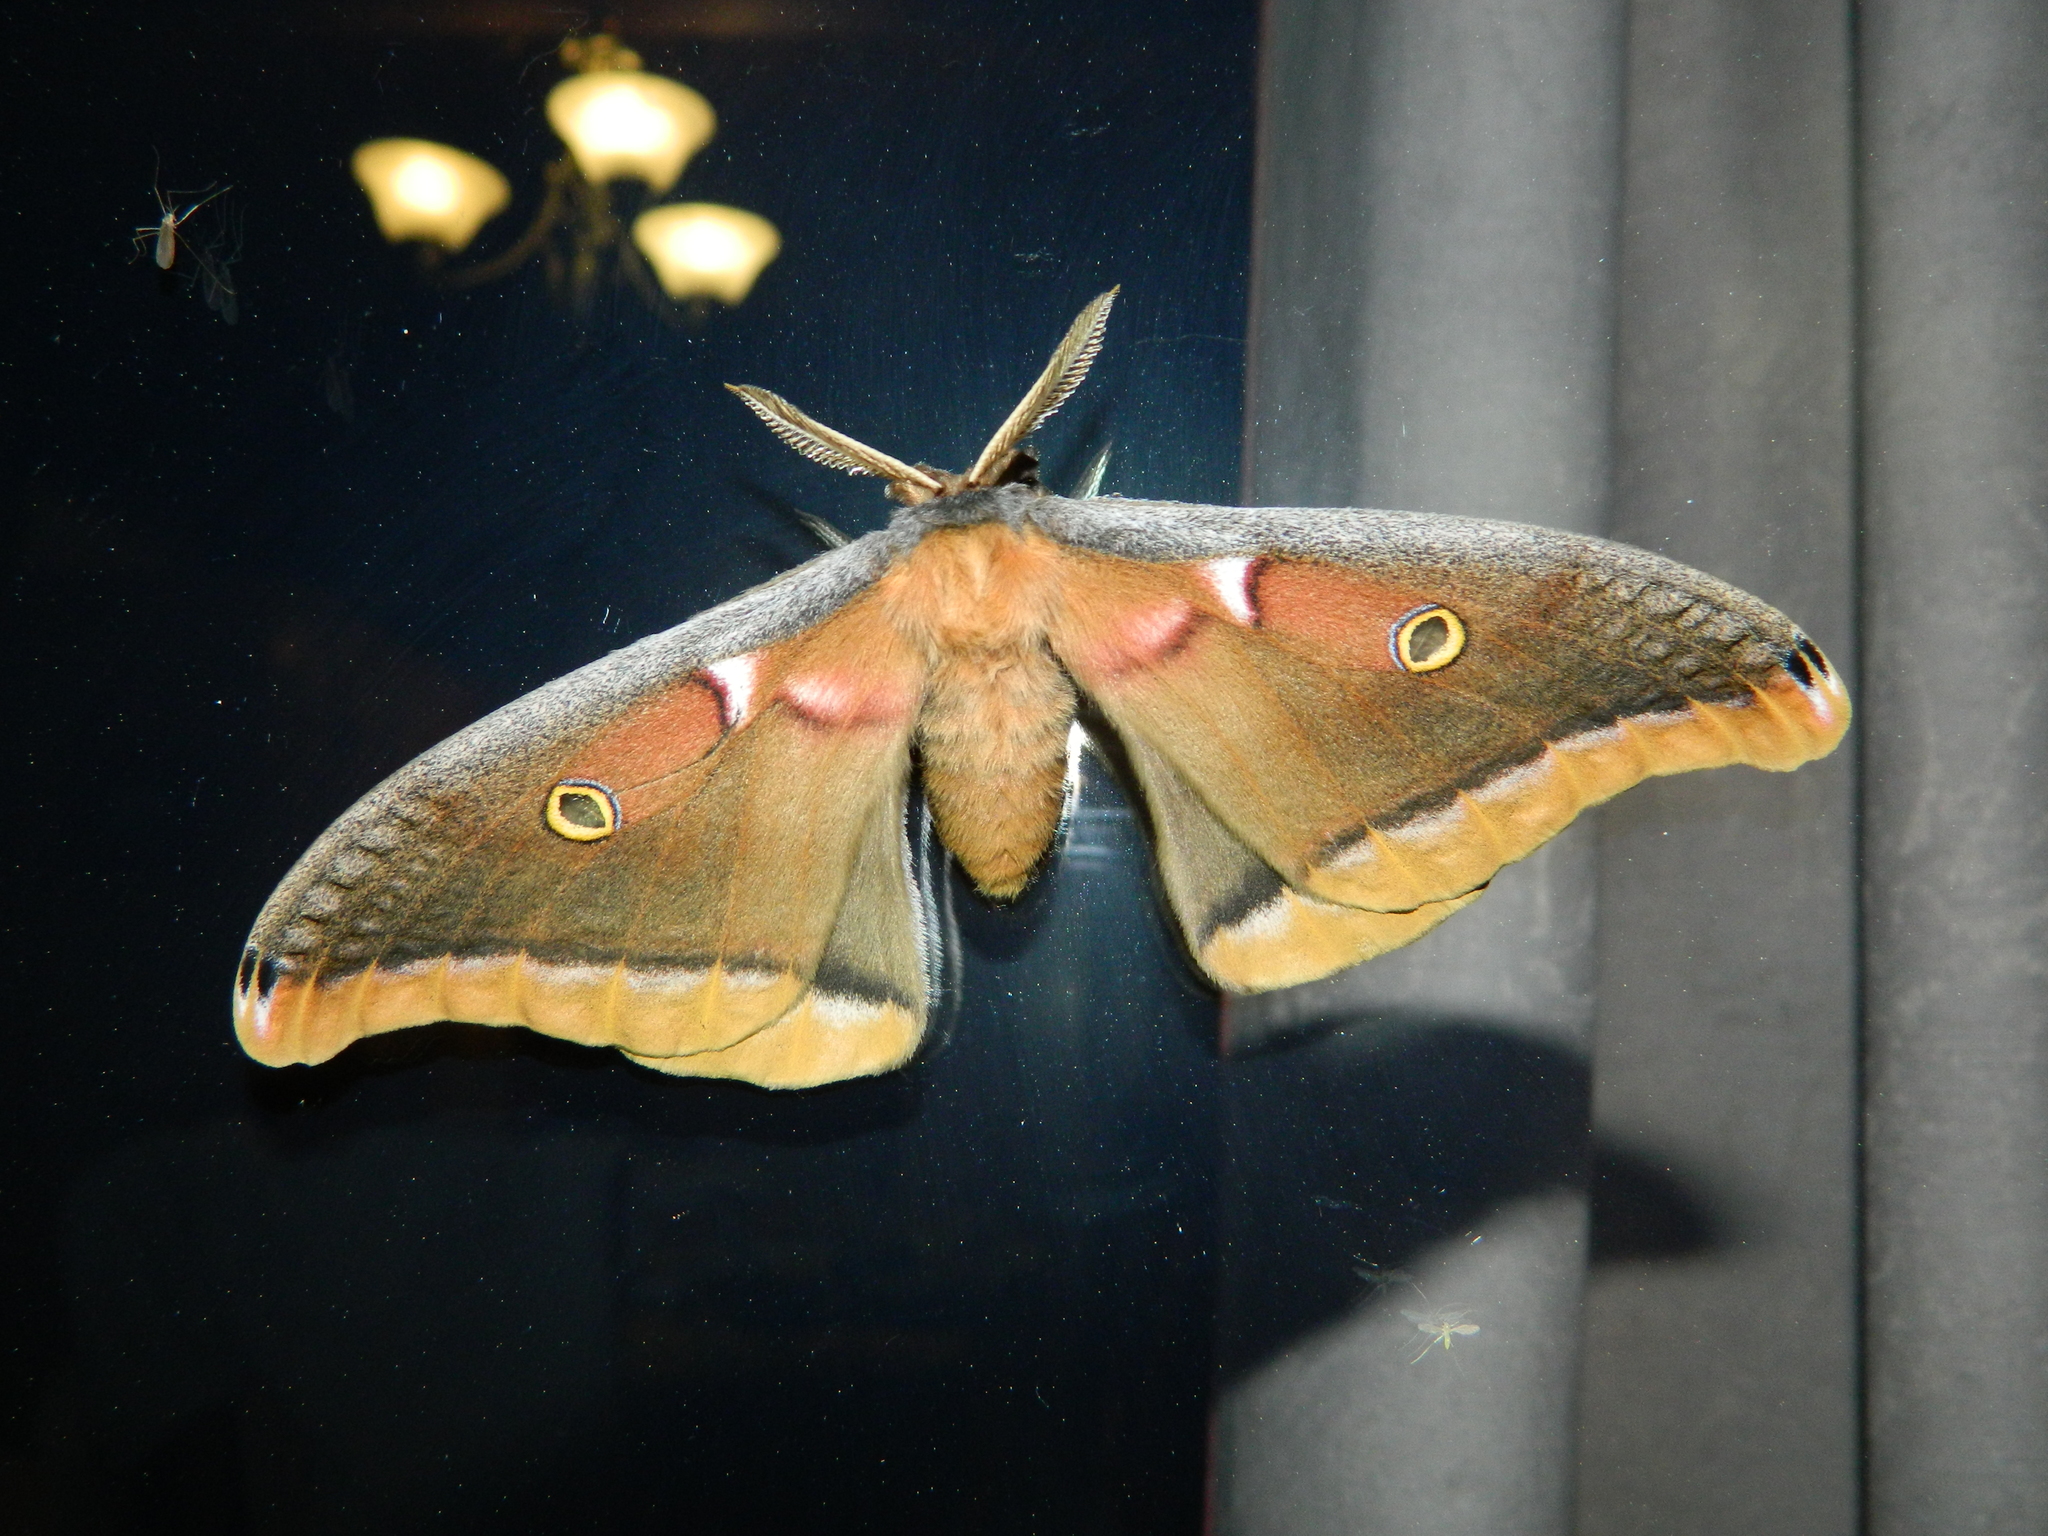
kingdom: Animalia
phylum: Arthropoda
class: Insecta
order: Lepidoptera
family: Saturniidae
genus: Antheraea
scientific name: Antheraea polyphemus
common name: Polyphemus moth
